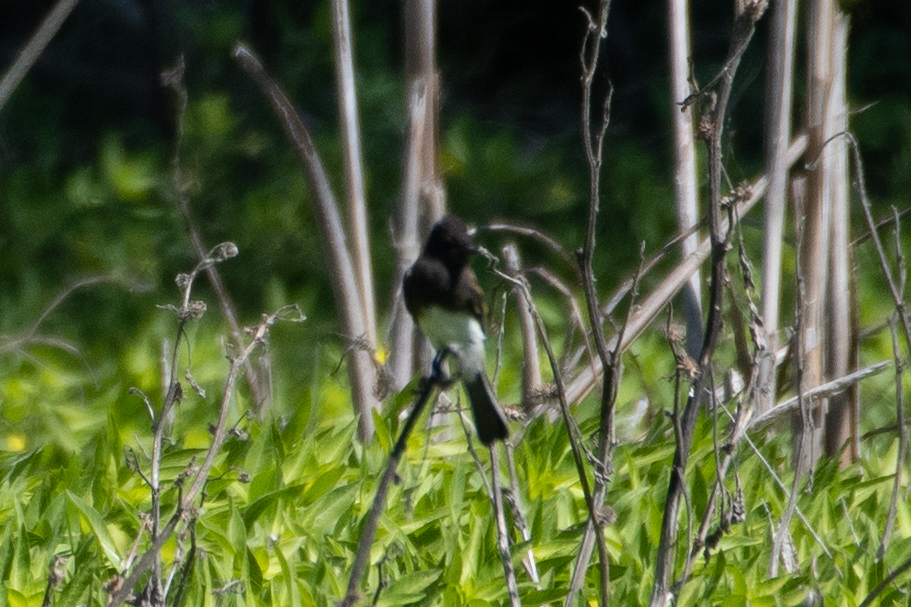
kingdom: Animalia
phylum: Chordata
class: Aves
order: Passeriformes
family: Tyrannidae
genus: Sayornis
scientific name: Sayornis nigricans
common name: Black phoebe
